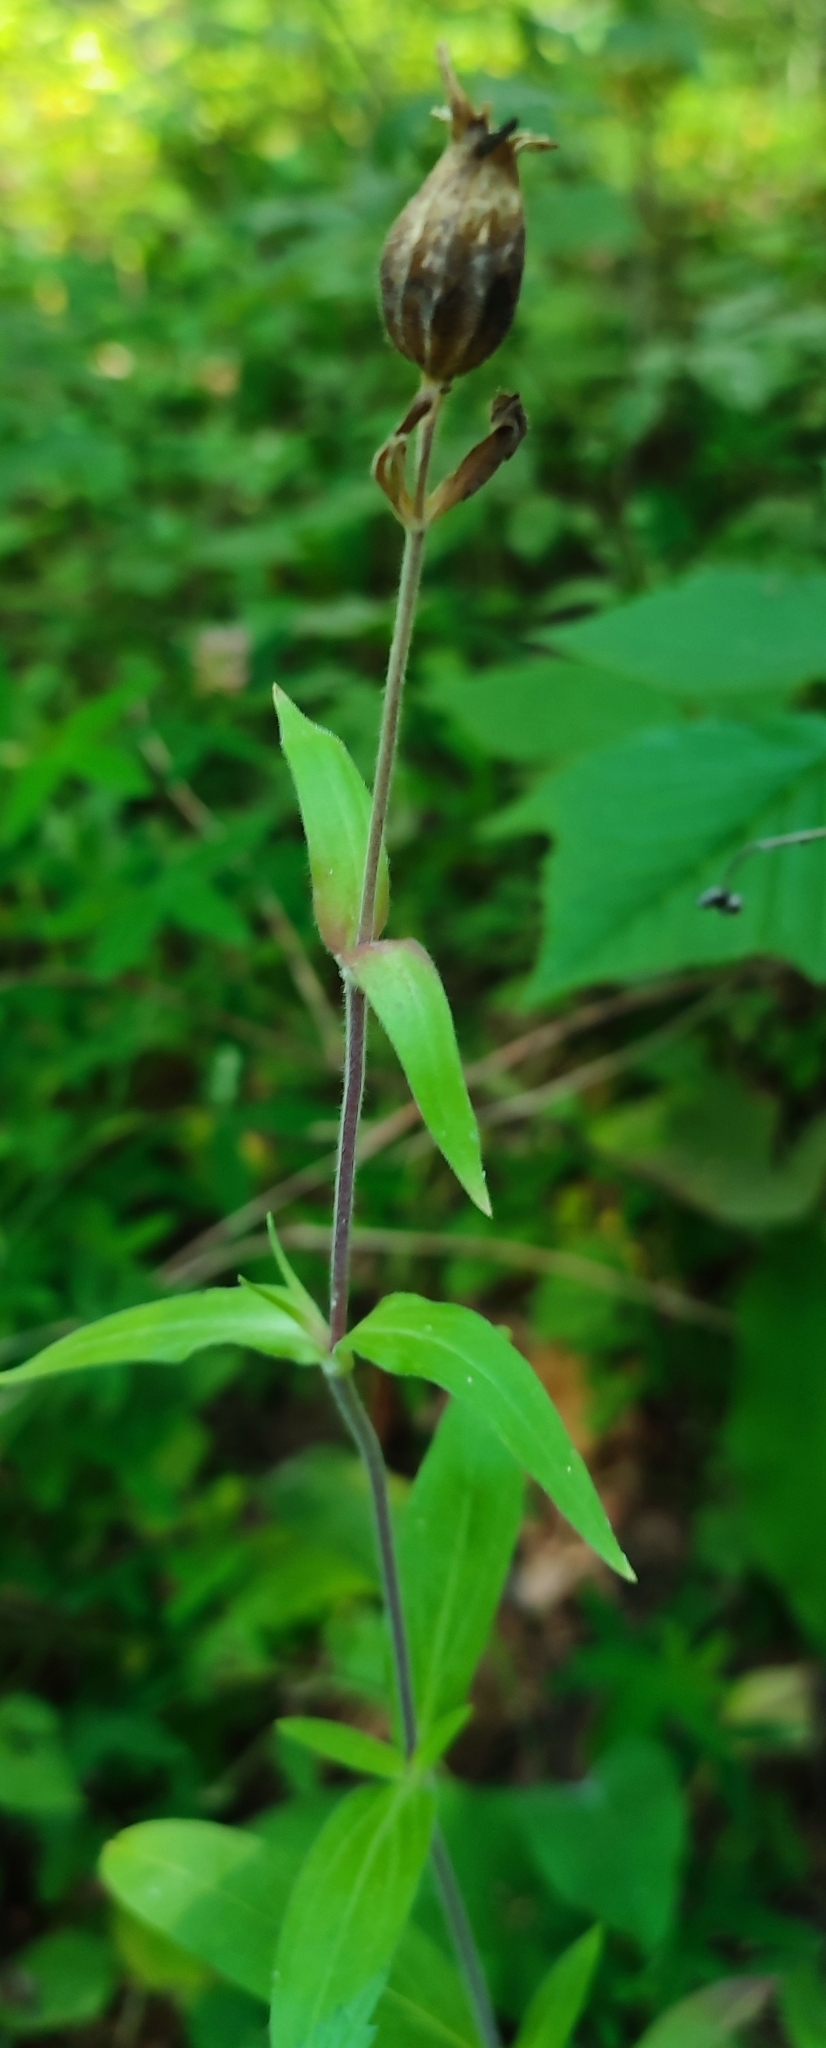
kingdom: Plantae
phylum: Tracheophyta
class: Magnoliopsida
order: Caryophyllales
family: Caryophyllaceae
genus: Silene
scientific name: Silene latifolia
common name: White campion
